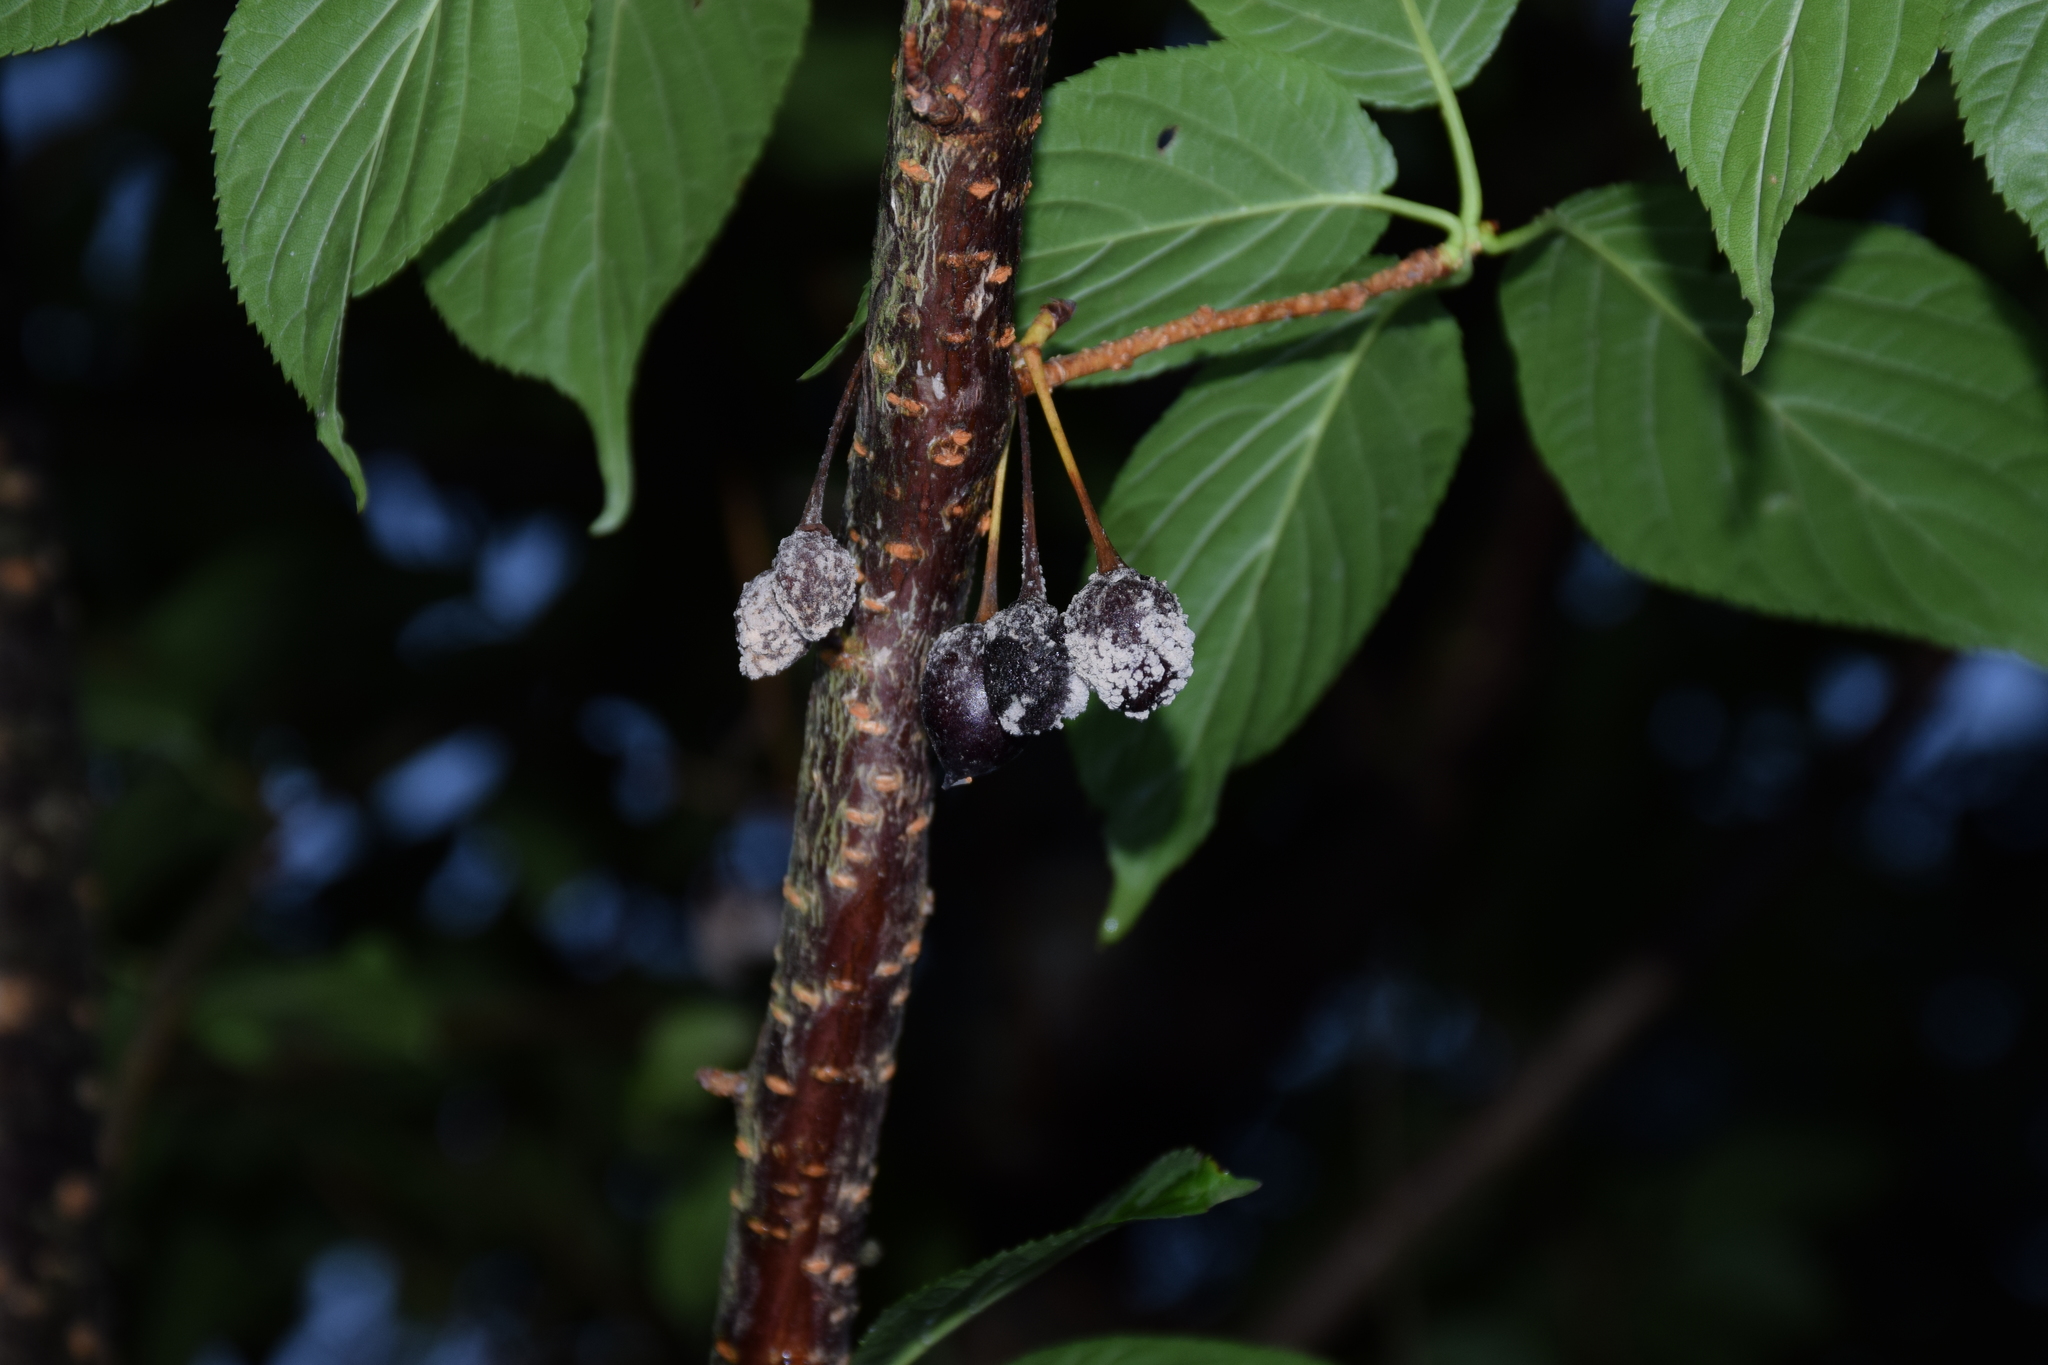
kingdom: Fungi
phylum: Ascomycota
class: Leotiomycetes
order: Helotiales
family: Sclerotiniaceae
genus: Monilinia
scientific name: Monilinia fructicola
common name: Brown fruit rot
